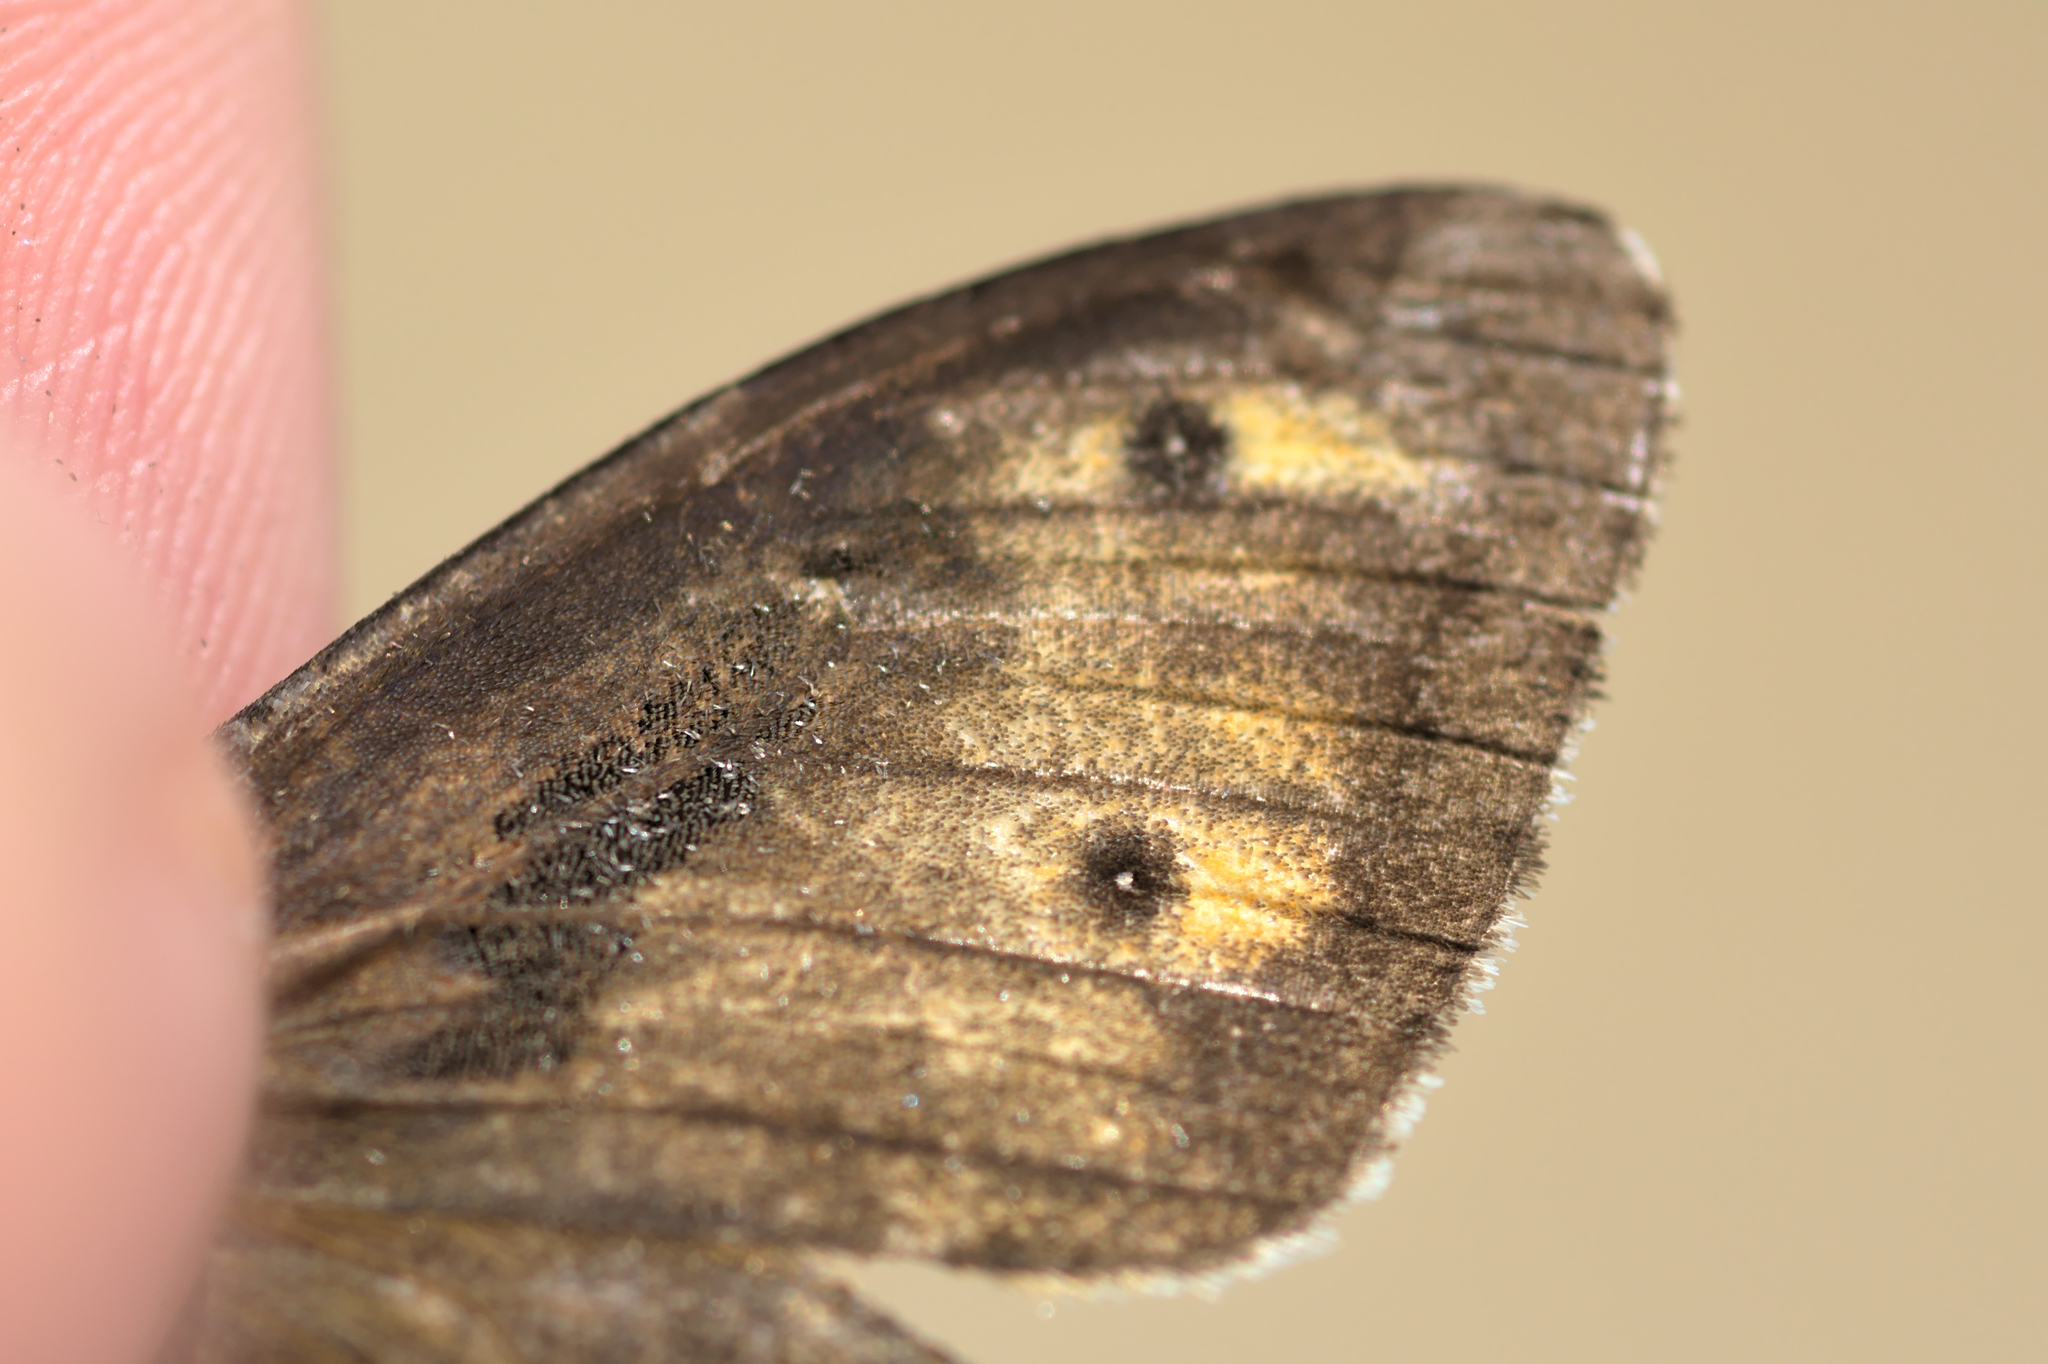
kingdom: Animalia
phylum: Arthropoda
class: Insecta
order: Lepidoptera
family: Nymphalidae
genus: Hipparchia
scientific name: Hipparchia semele
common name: Grayling
